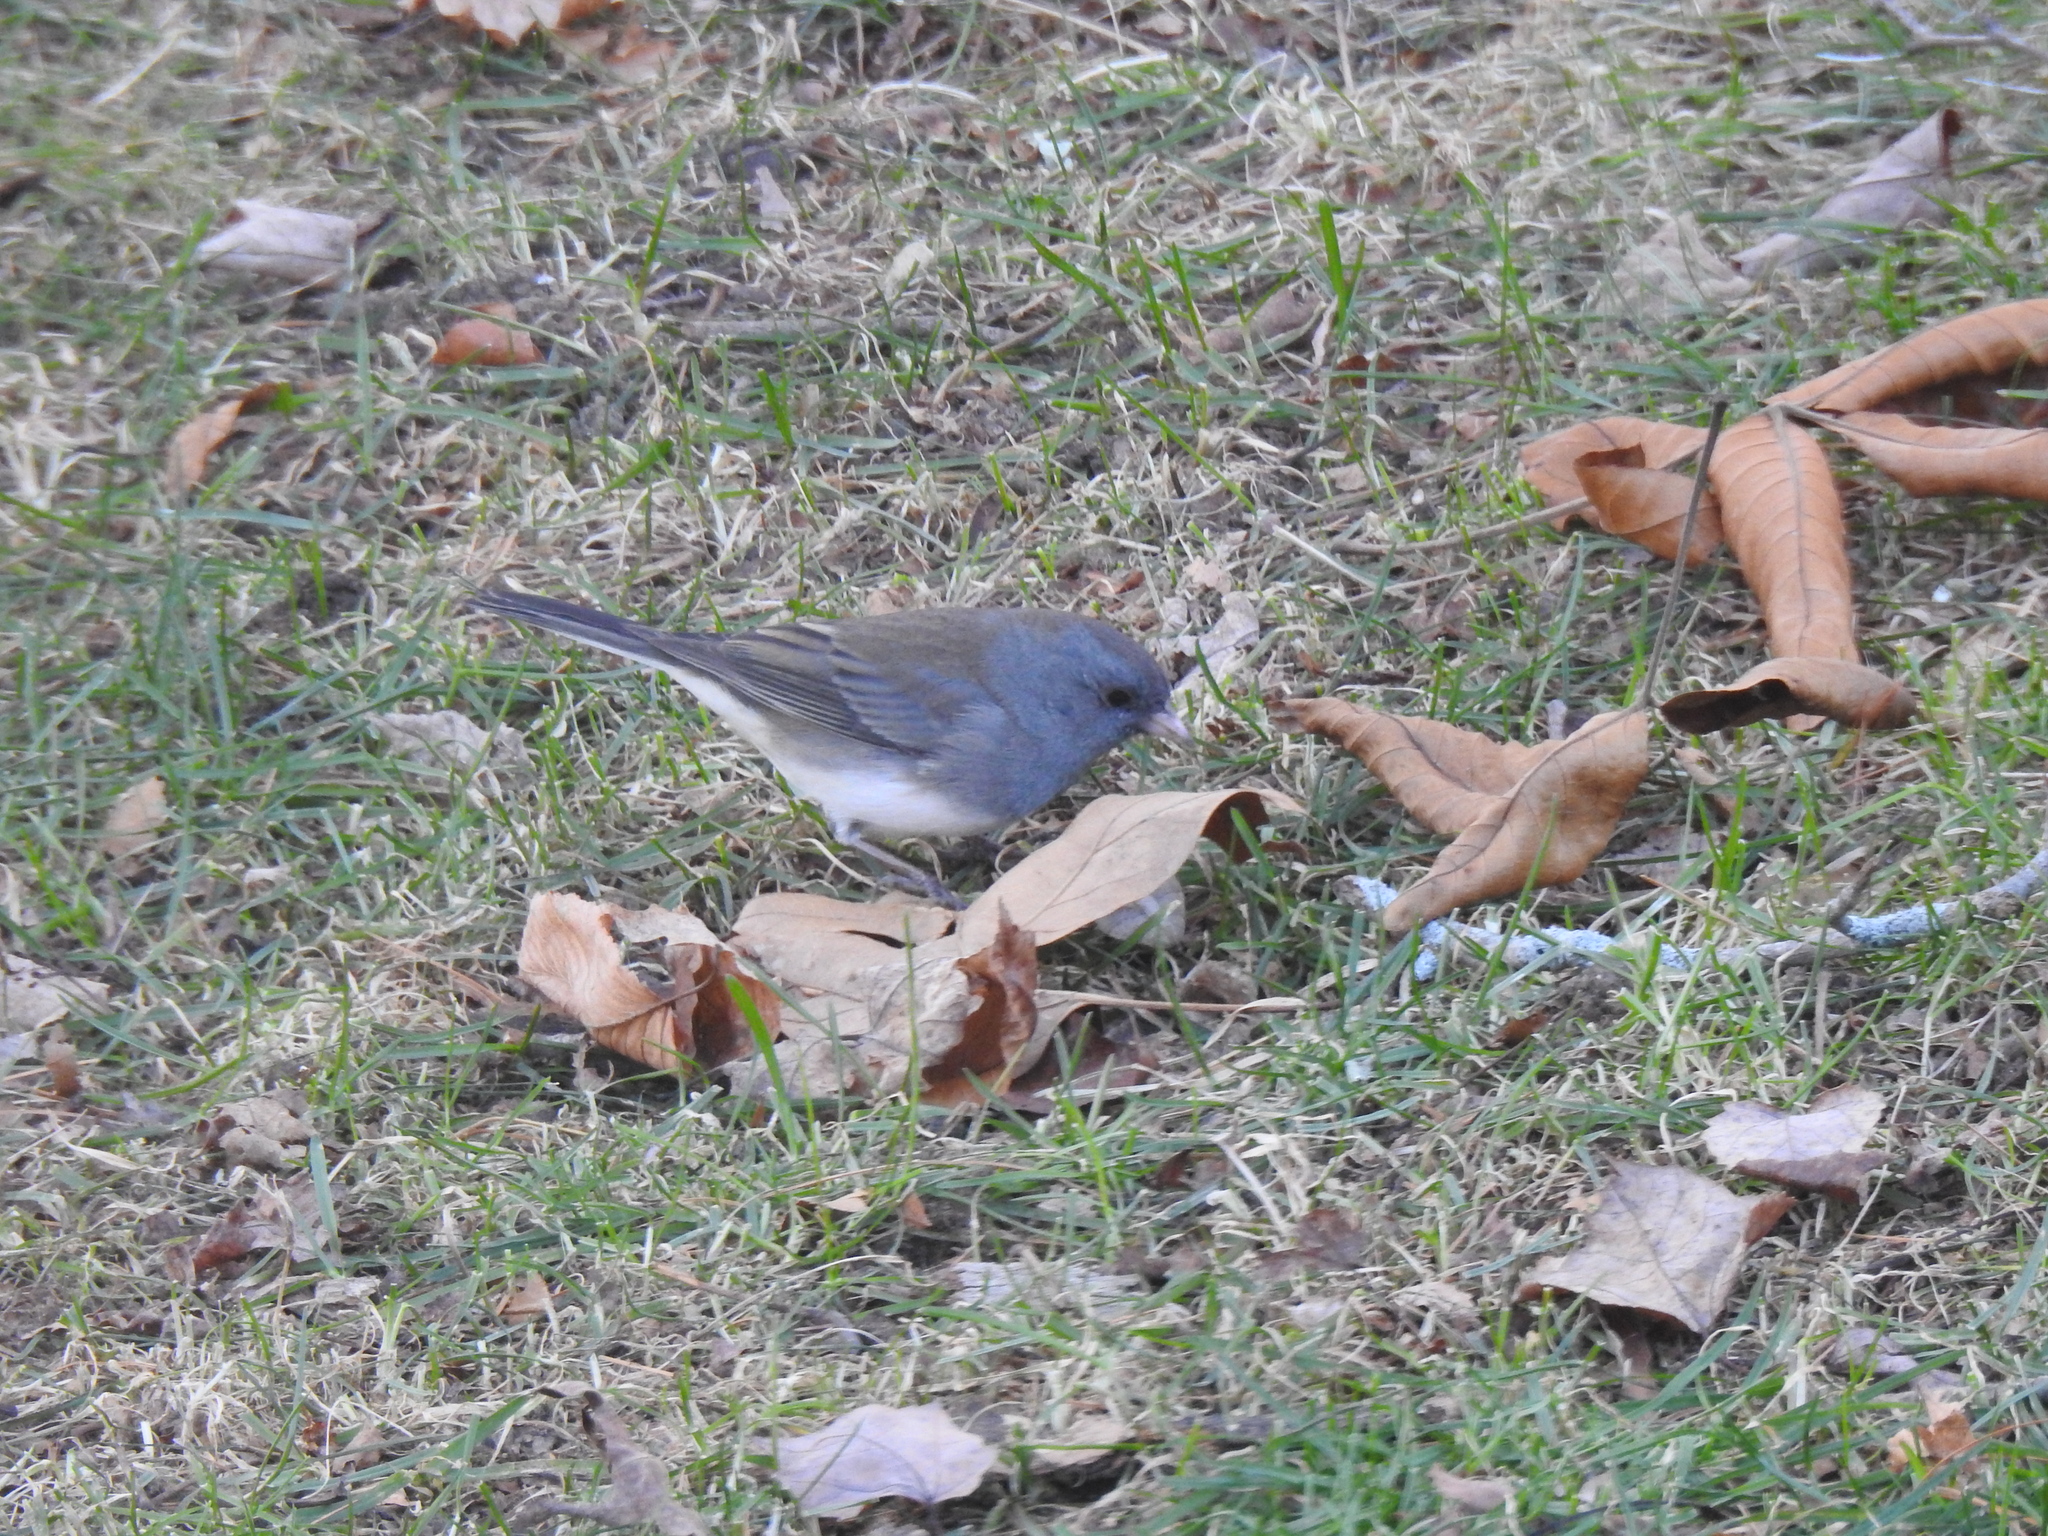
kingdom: Animalia
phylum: Chordata
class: Aves
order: Passeriformes
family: Passerellidae
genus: Junco
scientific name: Junco hyemalis
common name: Dark-eyed junco
